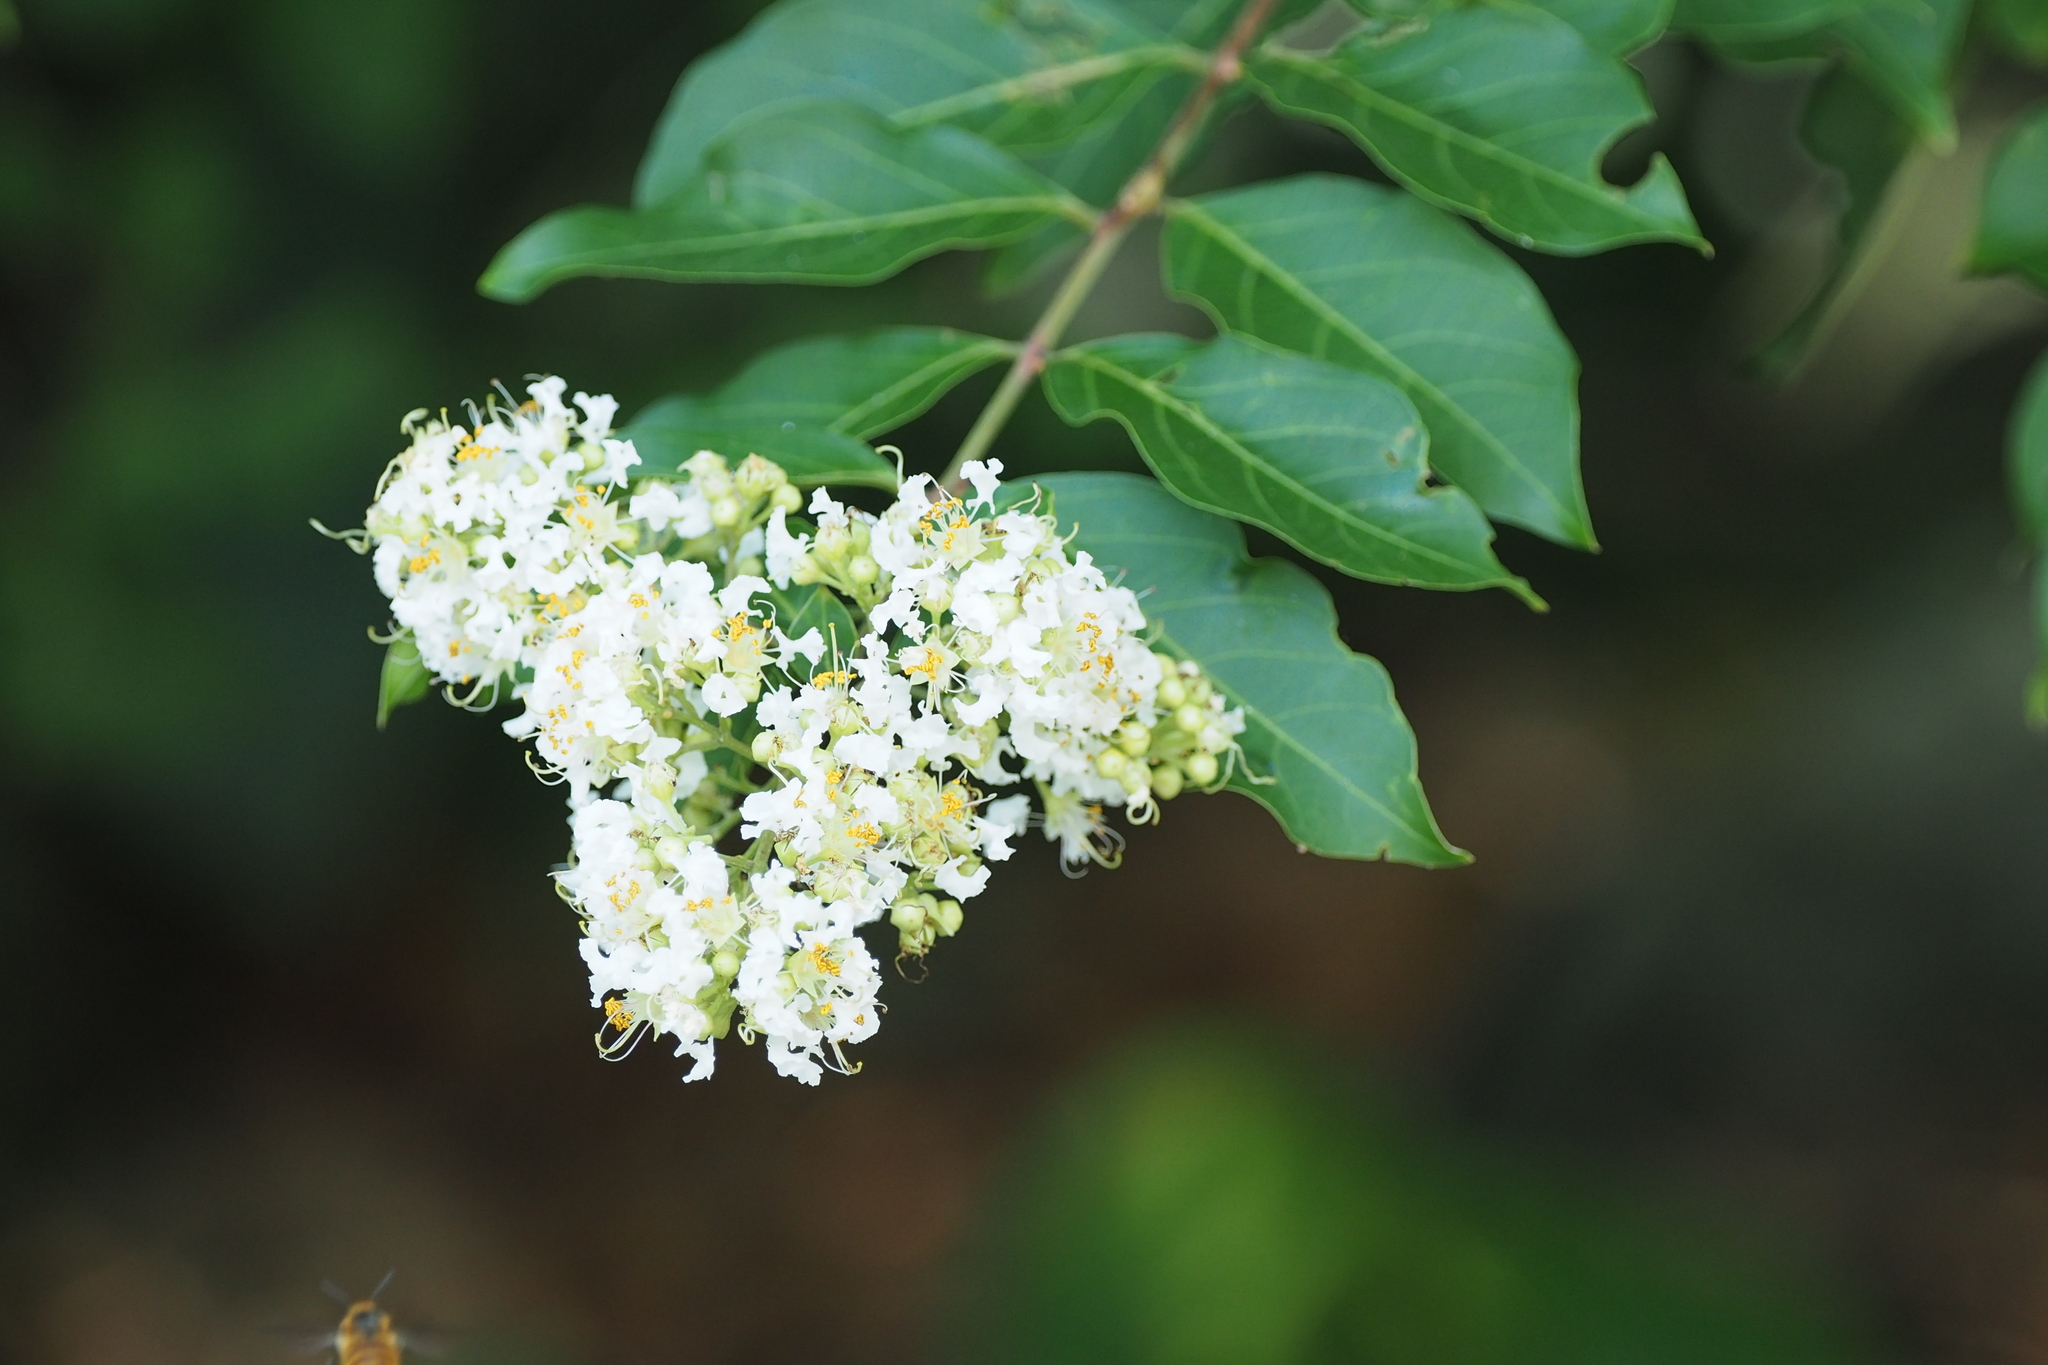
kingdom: Plantae
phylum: Tracheophyta
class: Magnoliopsida
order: Myrtales
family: Lythraceae
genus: Lagerstroemia
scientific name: Lagerstroemia subcostata
